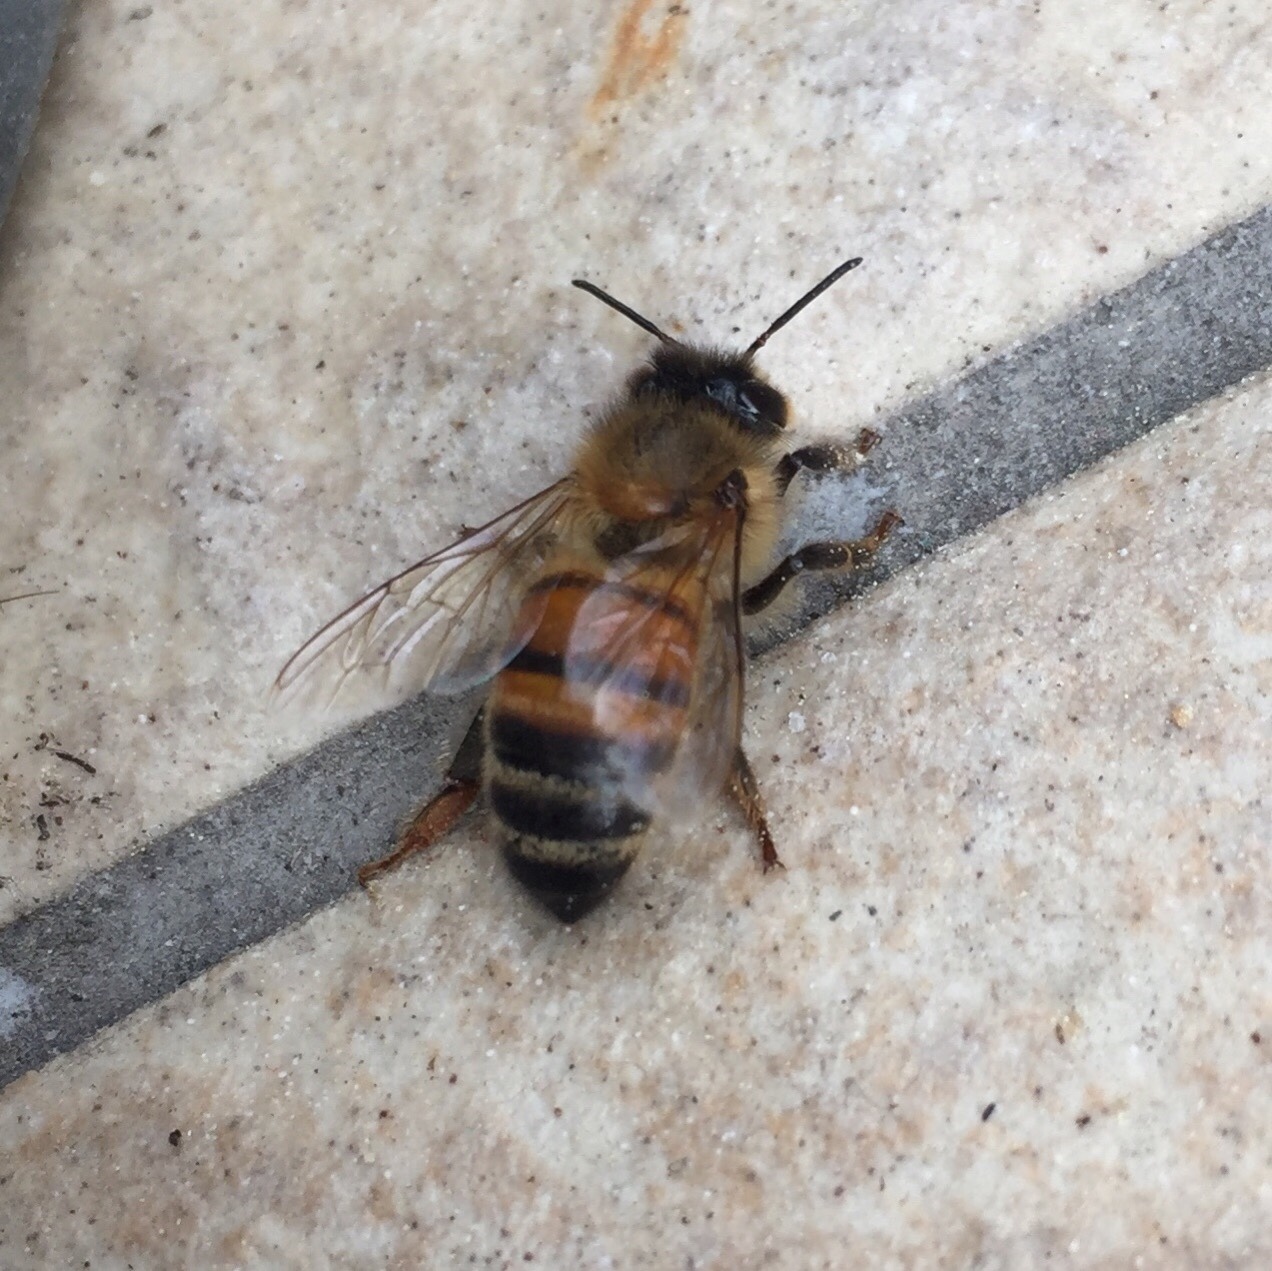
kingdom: Animalia
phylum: Arthropoda
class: Insecta
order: Hymenoptera
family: Apidae
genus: Apis
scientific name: Apis mellifera
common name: Honey bee
